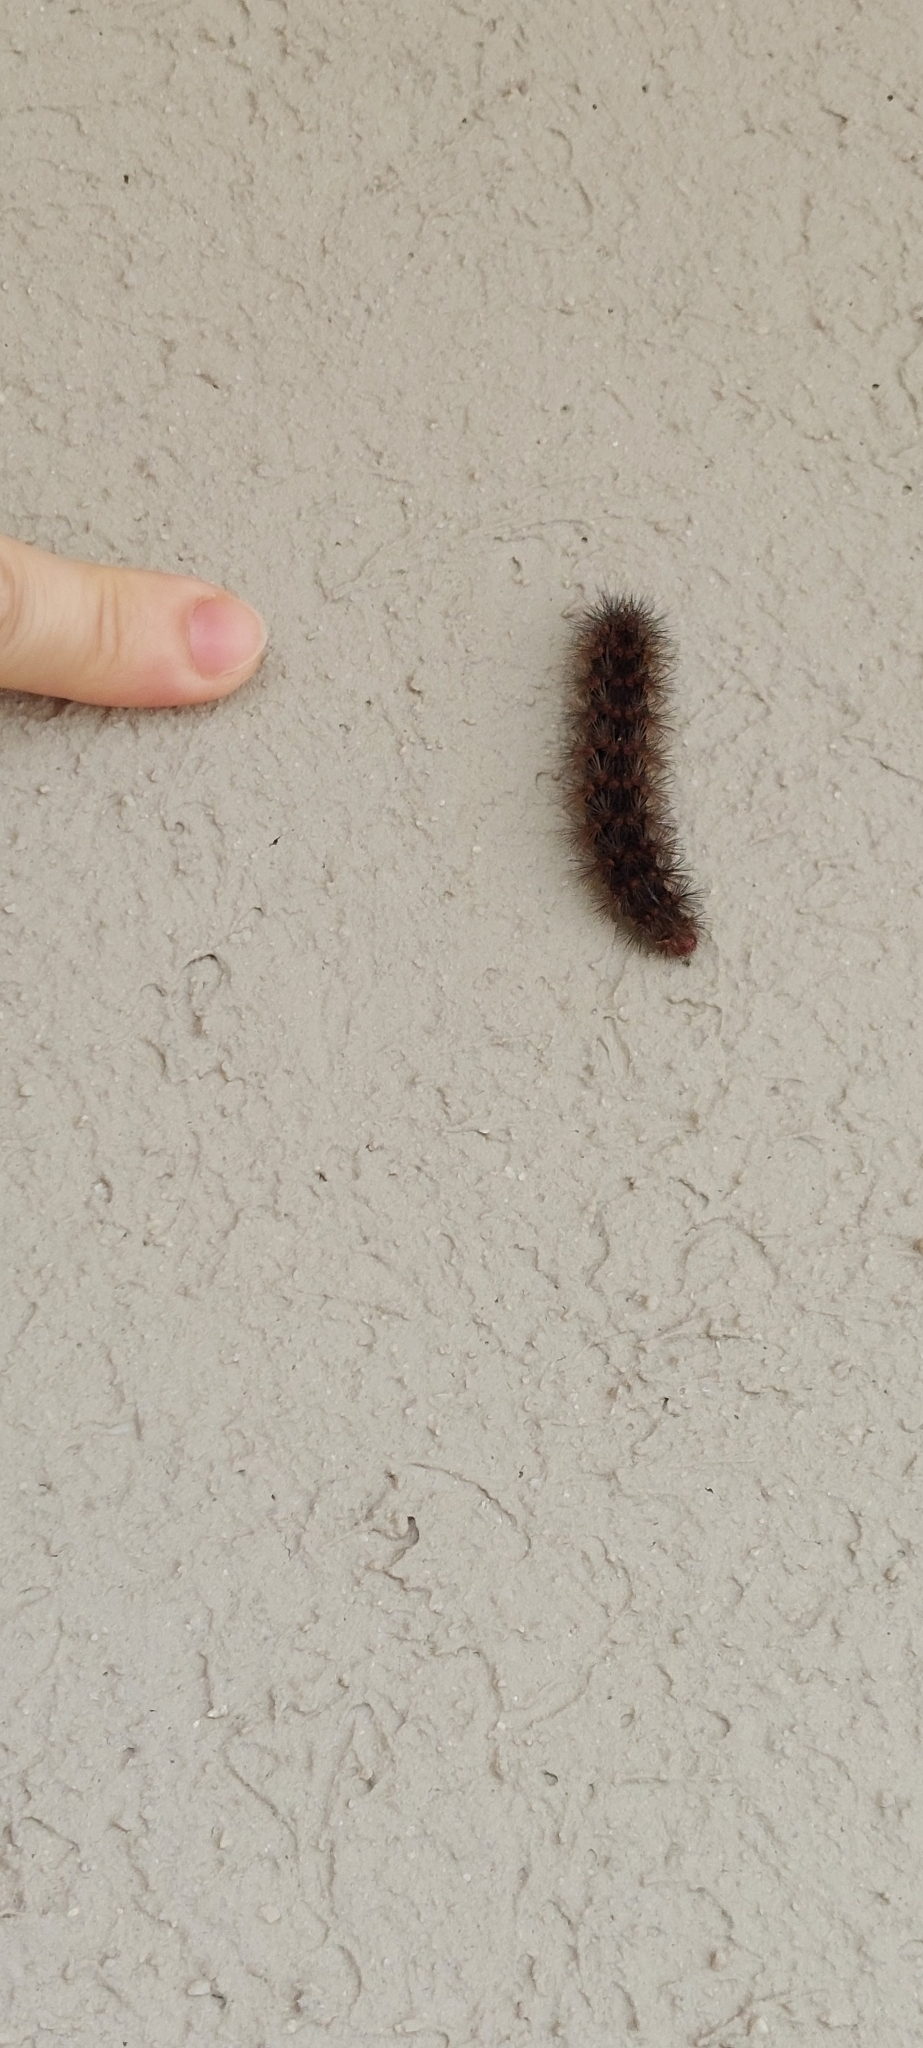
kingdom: Animalia
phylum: Arthropoda
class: Insecta
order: Lepidoptera
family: Erebidae
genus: Hypercompe
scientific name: Hypercompe indecisa
